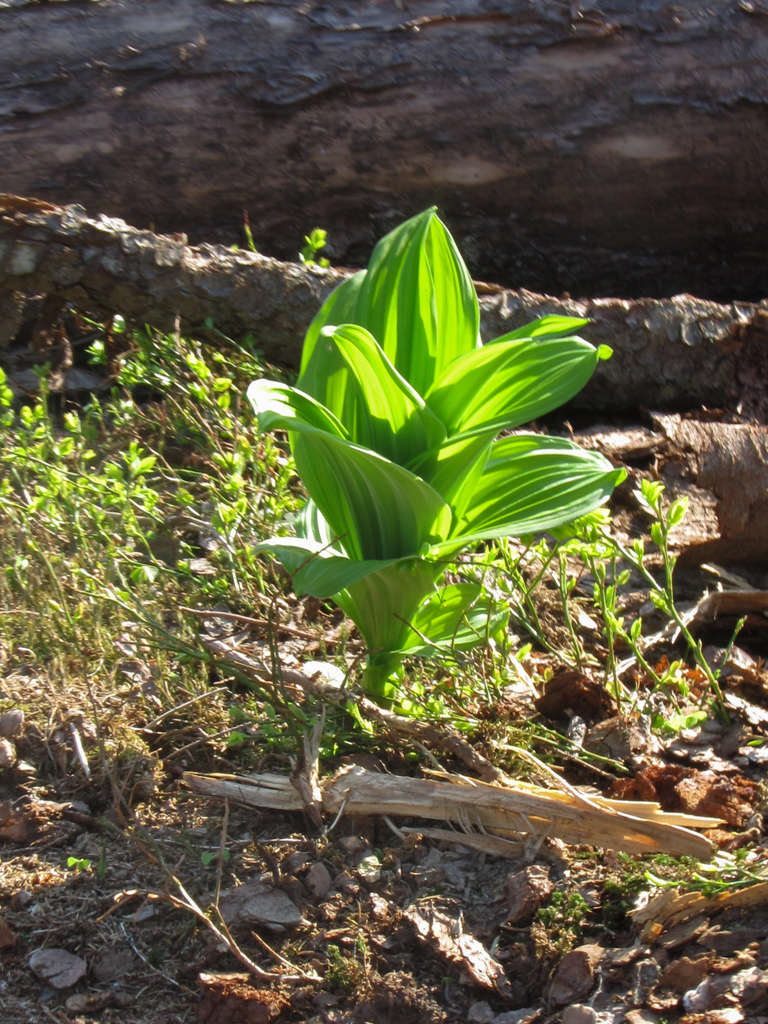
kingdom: Plantae
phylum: Tracheophyta
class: Liliopsida
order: Liliales
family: Melanthiaceae
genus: Veratrum
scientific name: Veratrum lobelianum
